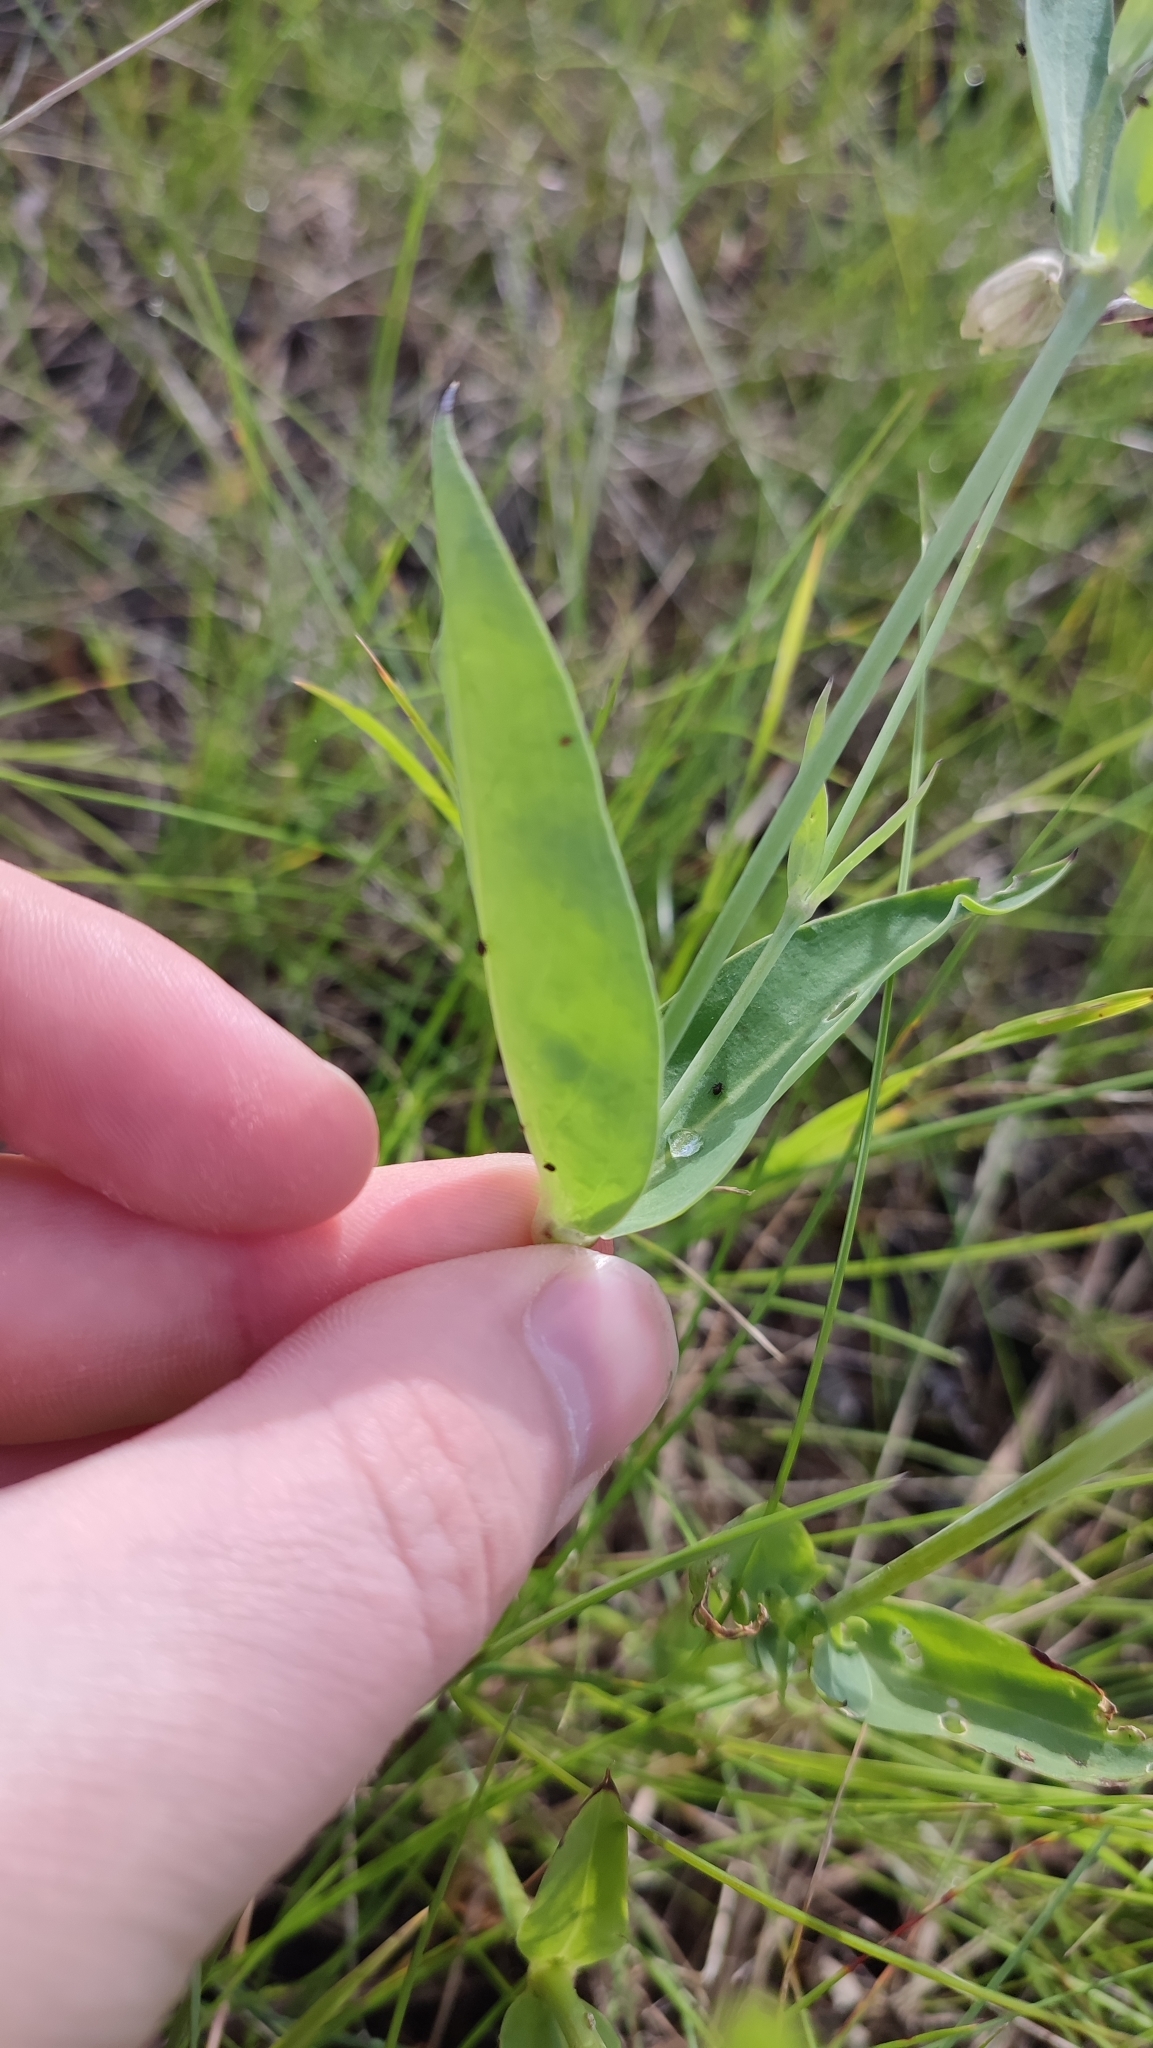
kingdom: Plantae
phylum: Tracheophyta
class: Magnoliopsida
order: Caryophyllales
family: Caryophyllaceae
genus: Silene
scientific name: Silene vulgaris
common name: Bladder campion
